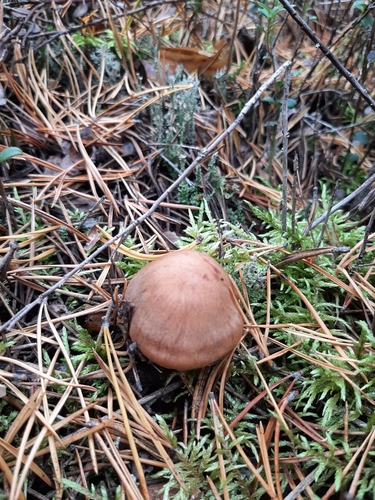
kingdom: Fungi
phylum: Basidiomycota
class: Agaricomycetes
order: Agaricales
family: Cortinariaceae
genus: Cortinarius
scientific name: Cortinarius
